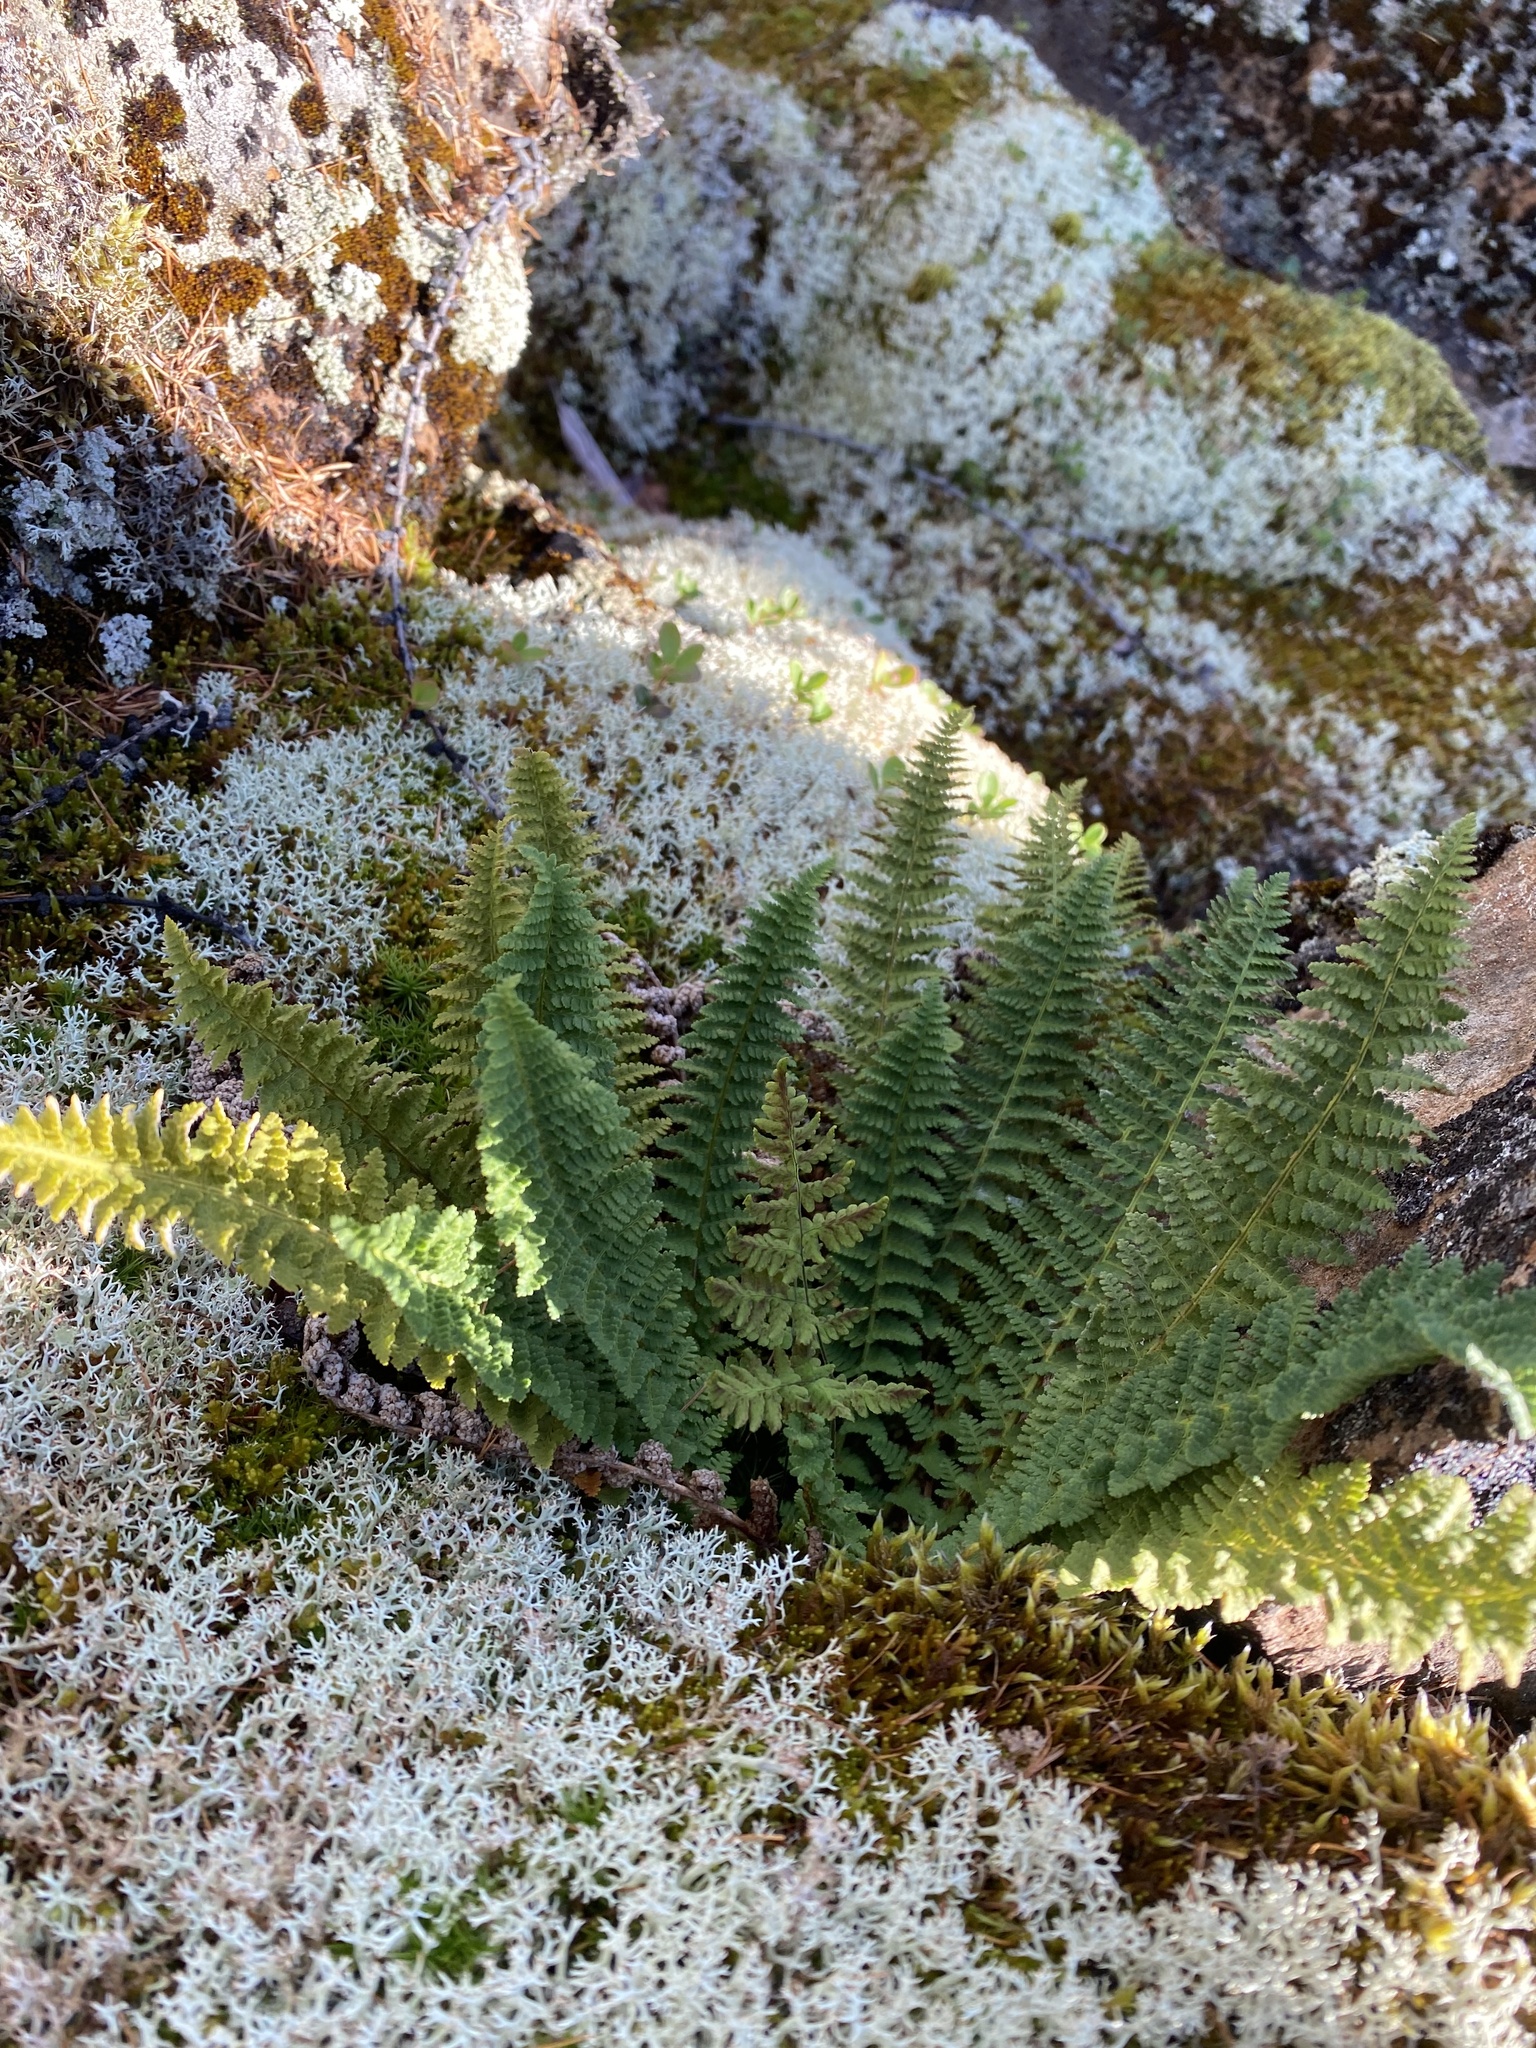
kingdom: Plantae
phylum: Tracheophyta
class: Polypodiopsida
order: Polypodiales
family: Dryopteridaceae
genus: Dryopteris
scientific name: Dryopteris fragrans
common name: Fragrant wood fern
